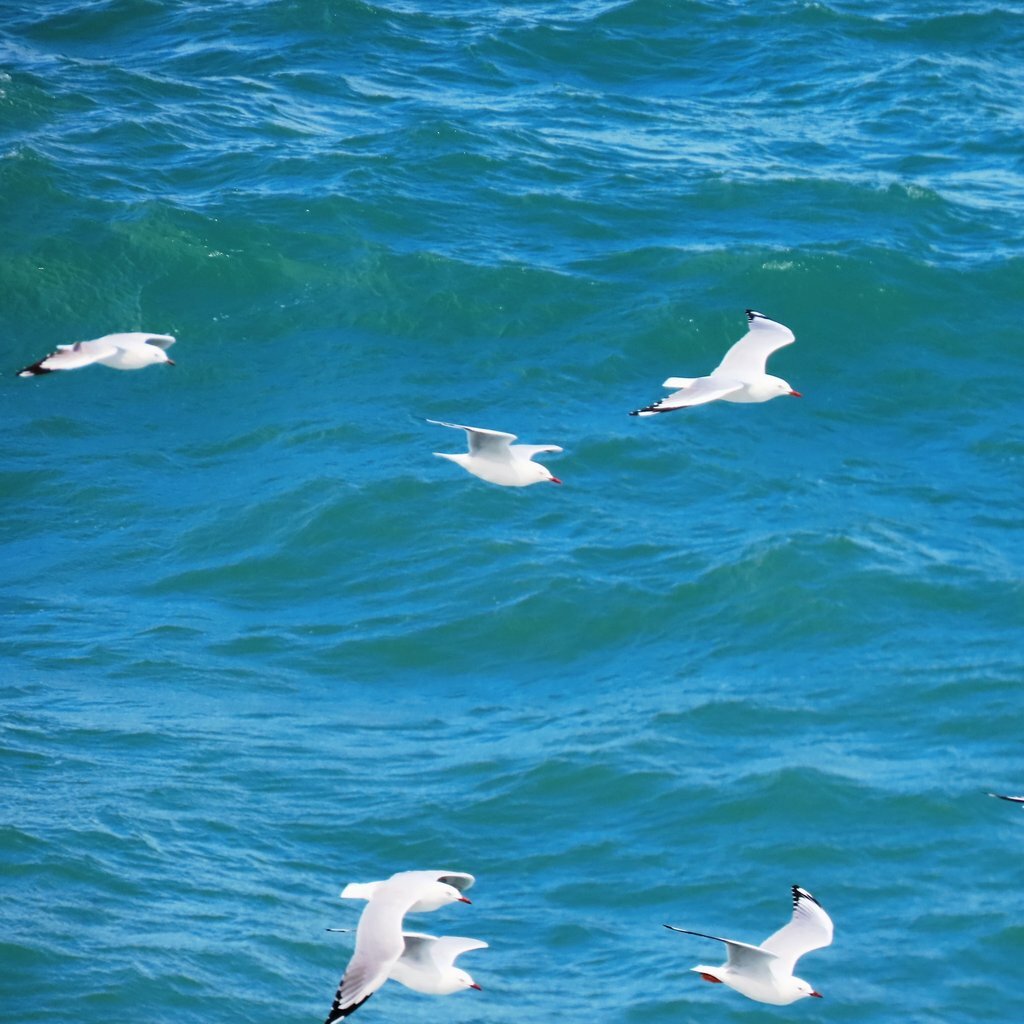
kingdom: Animalia
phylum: Chordata
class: Aves
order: Charadriiformes
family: Laridae
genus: Chroicocephalus
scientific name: Chroicocephalus novaehollandiae
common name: Silver gull
